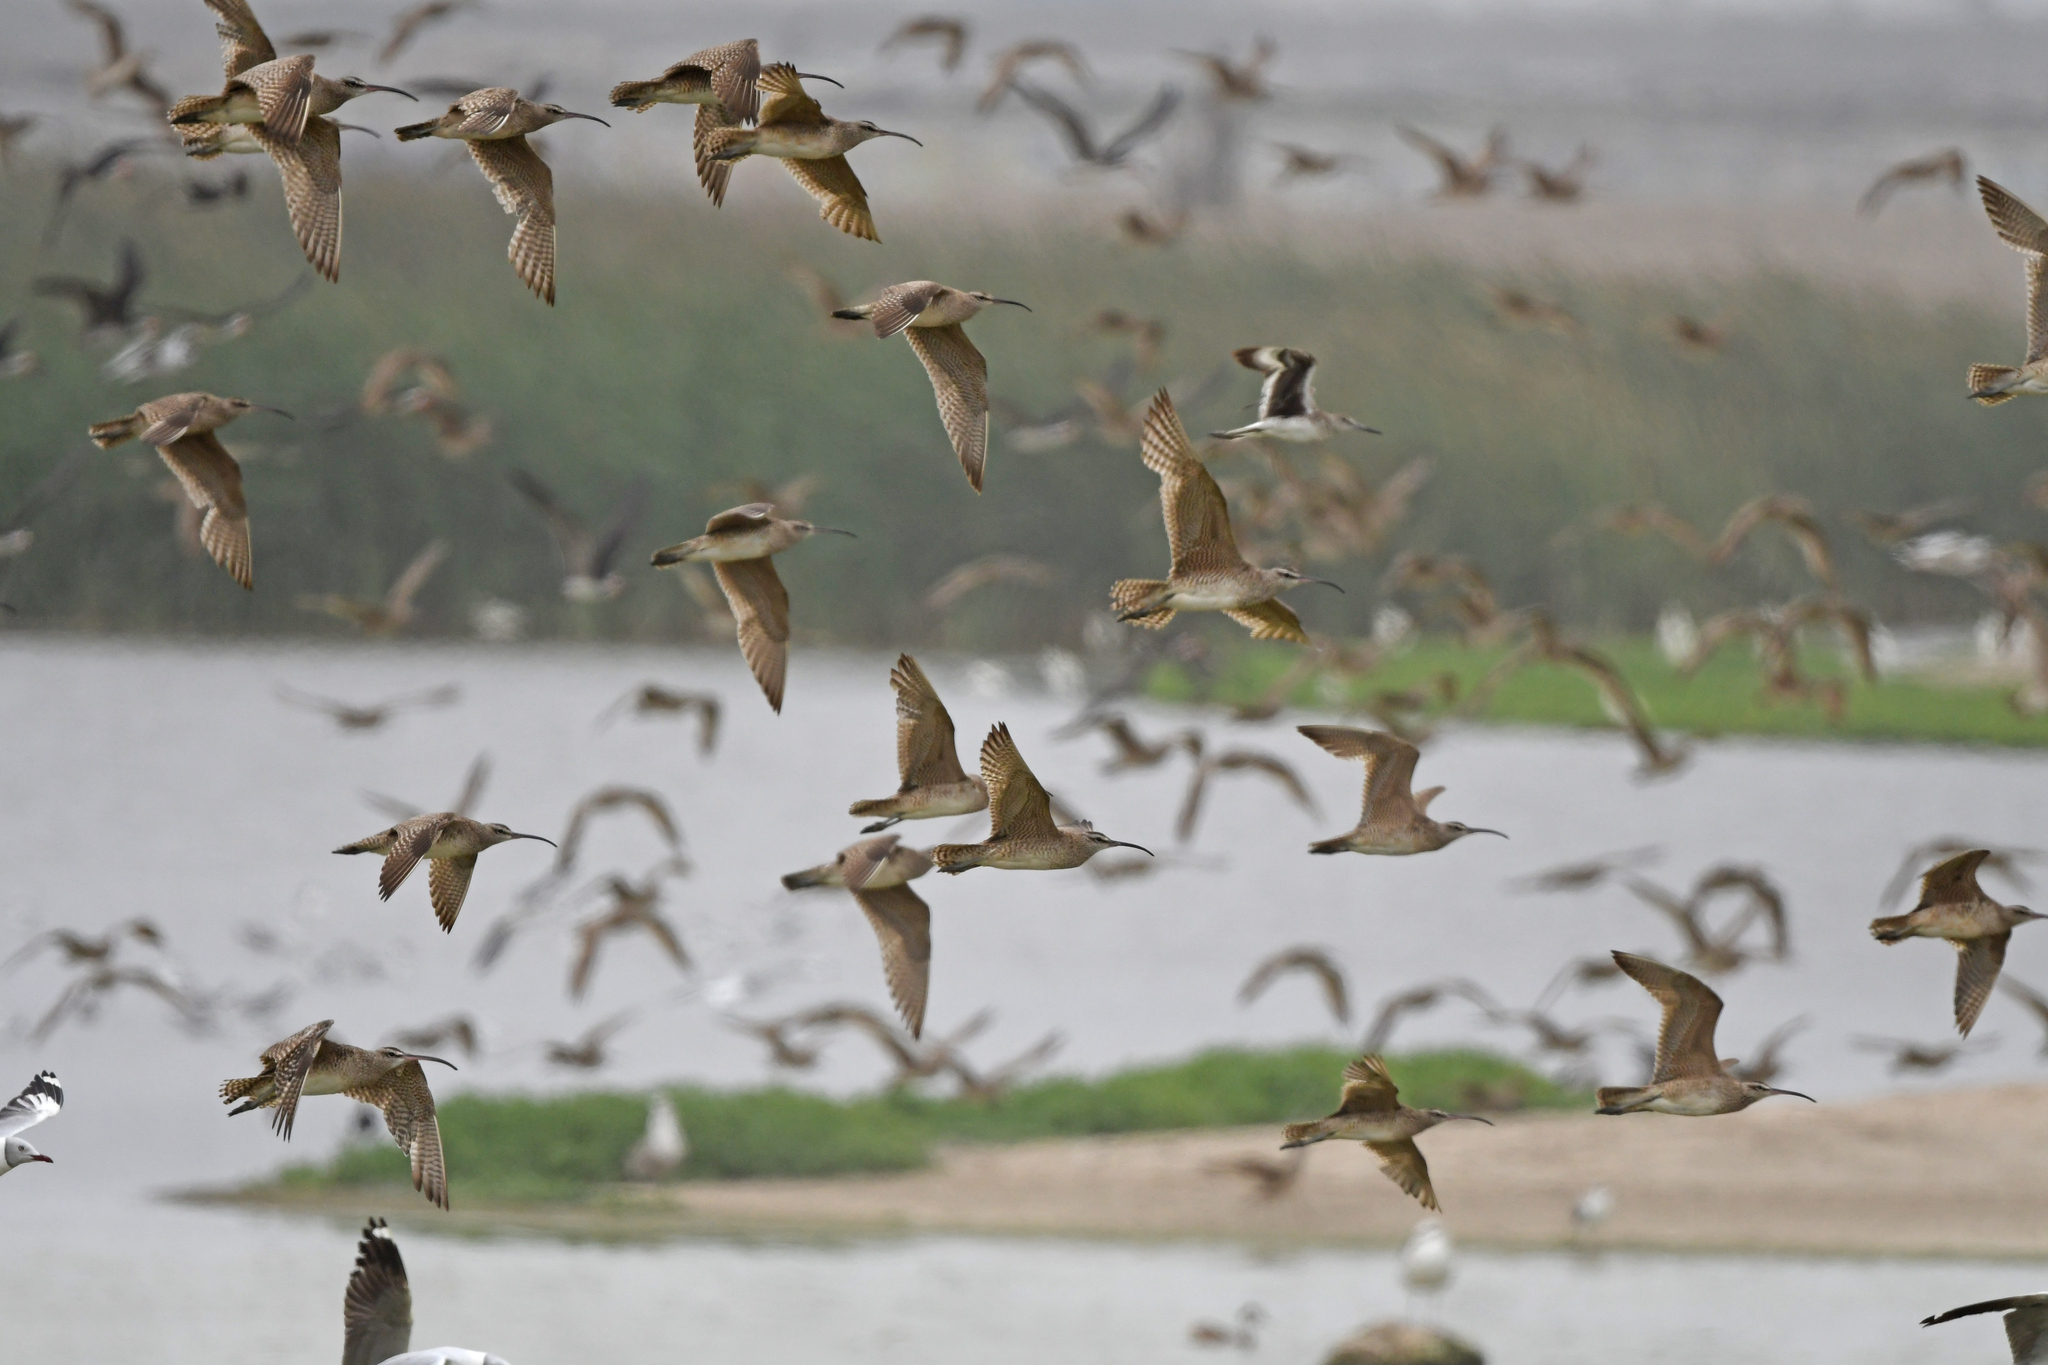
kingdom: Animalia
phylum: Chordata
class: Aves
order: Charadriiformes
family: Scolopacidae
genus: Numenius
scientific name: Numenius phaeopus
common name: Whimbrel
